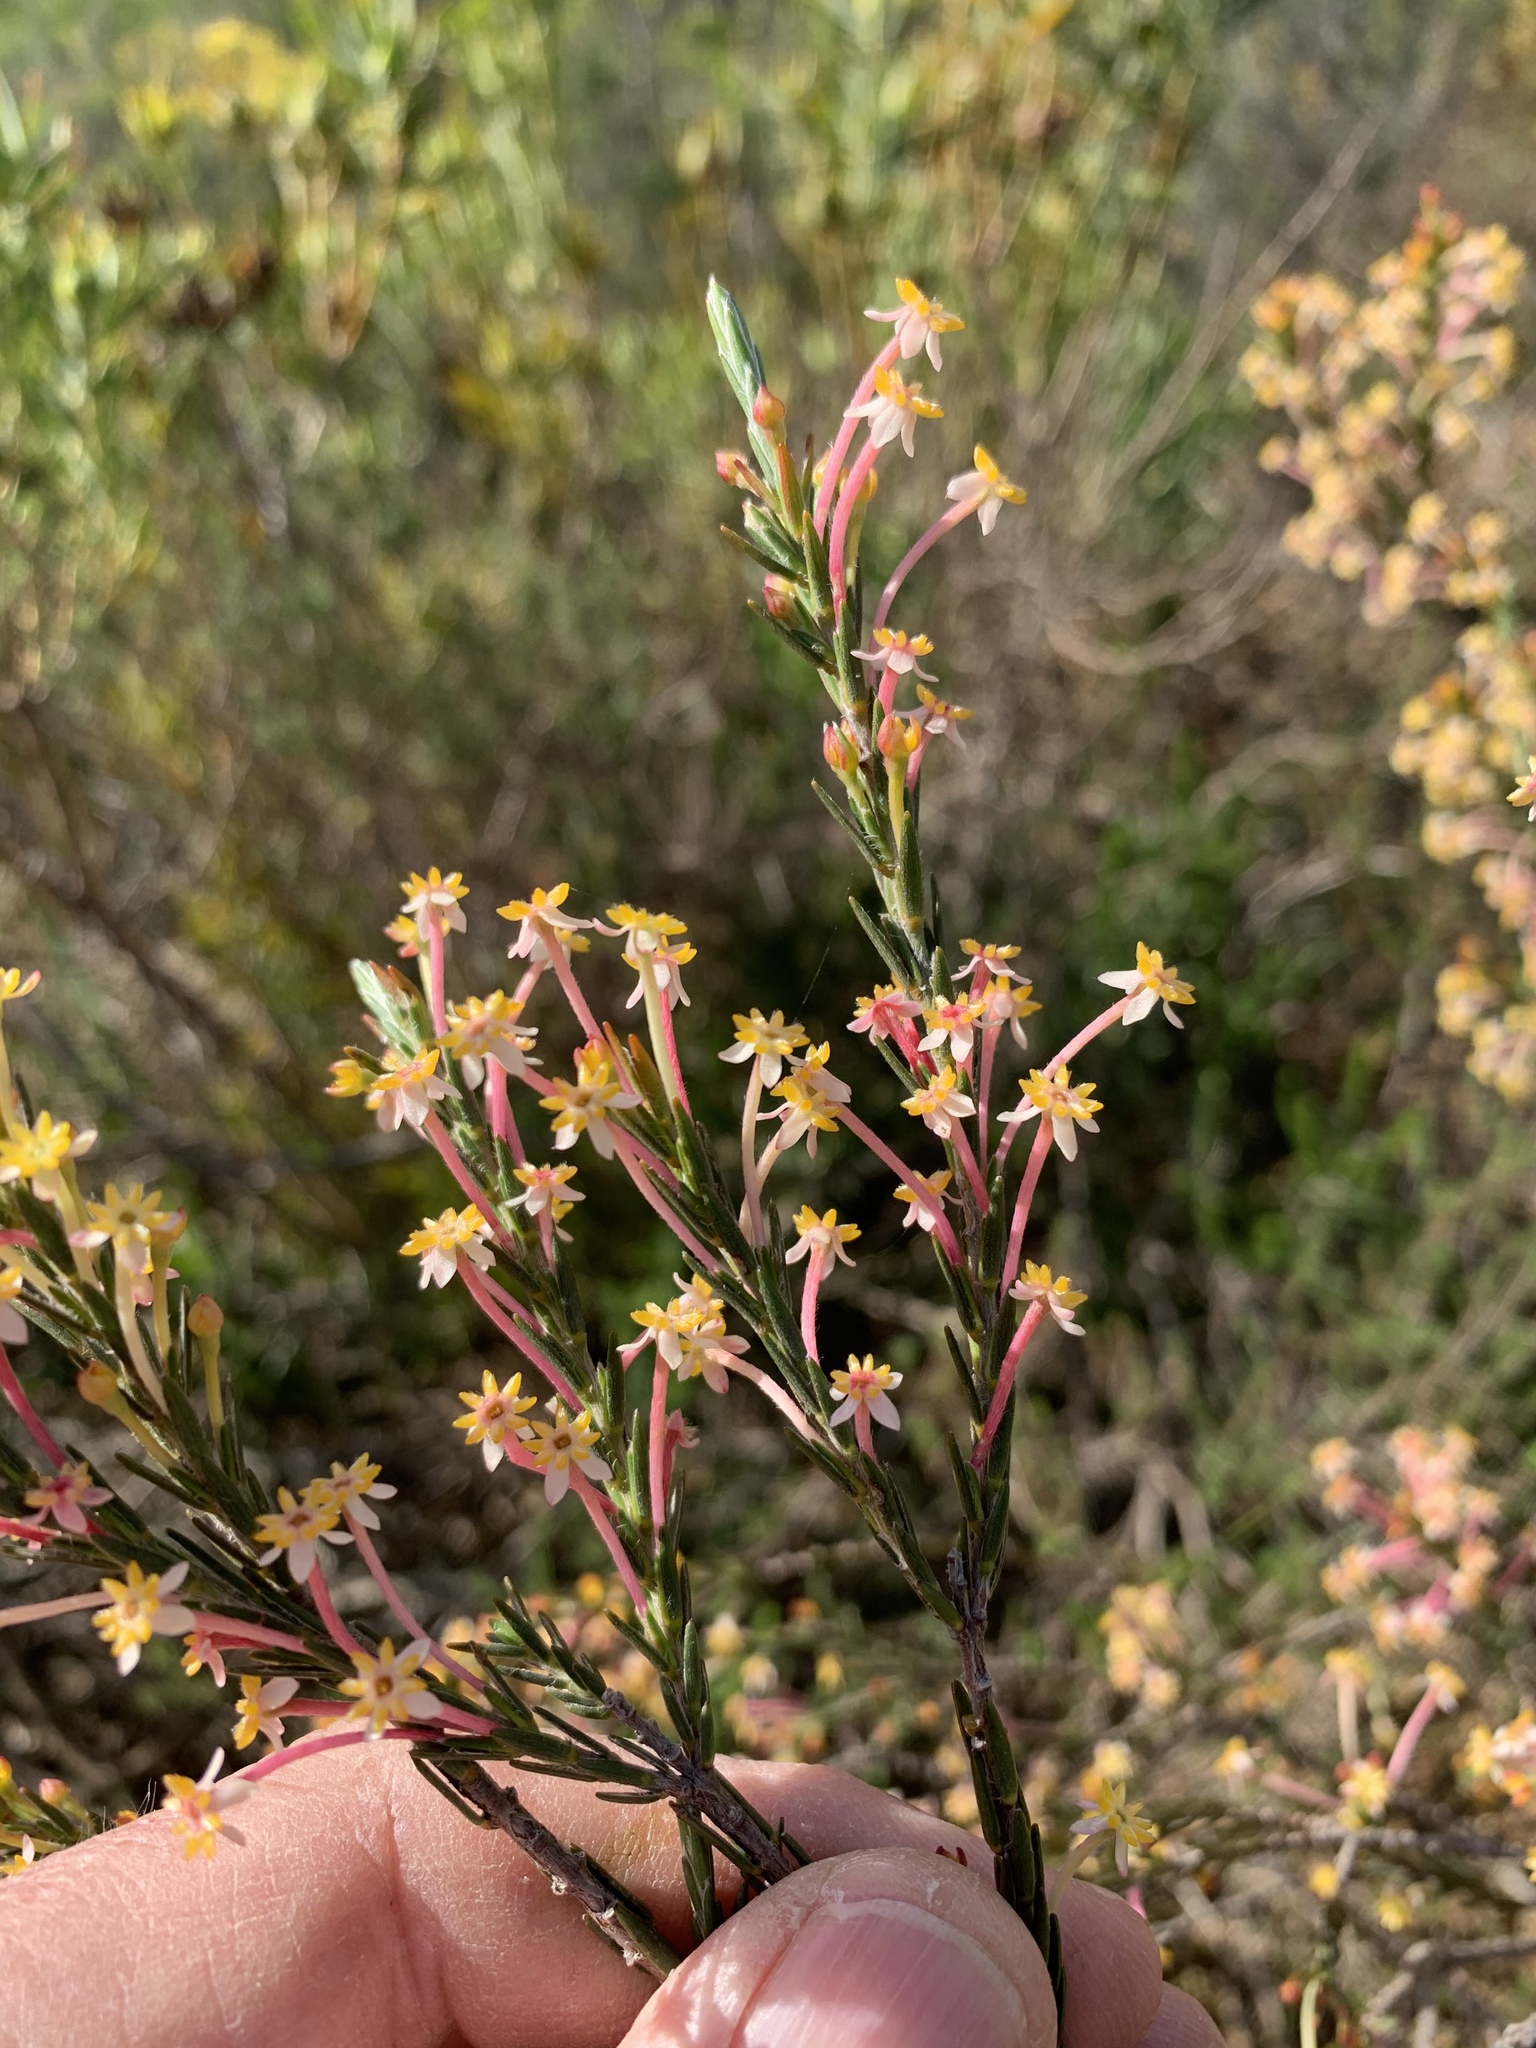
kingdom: Plantae
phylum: Tracheophyta
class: Magnoliopsida
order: Malvales
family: Thymelaeaceae
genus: Struthiola
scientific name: Struthiola ciliata
